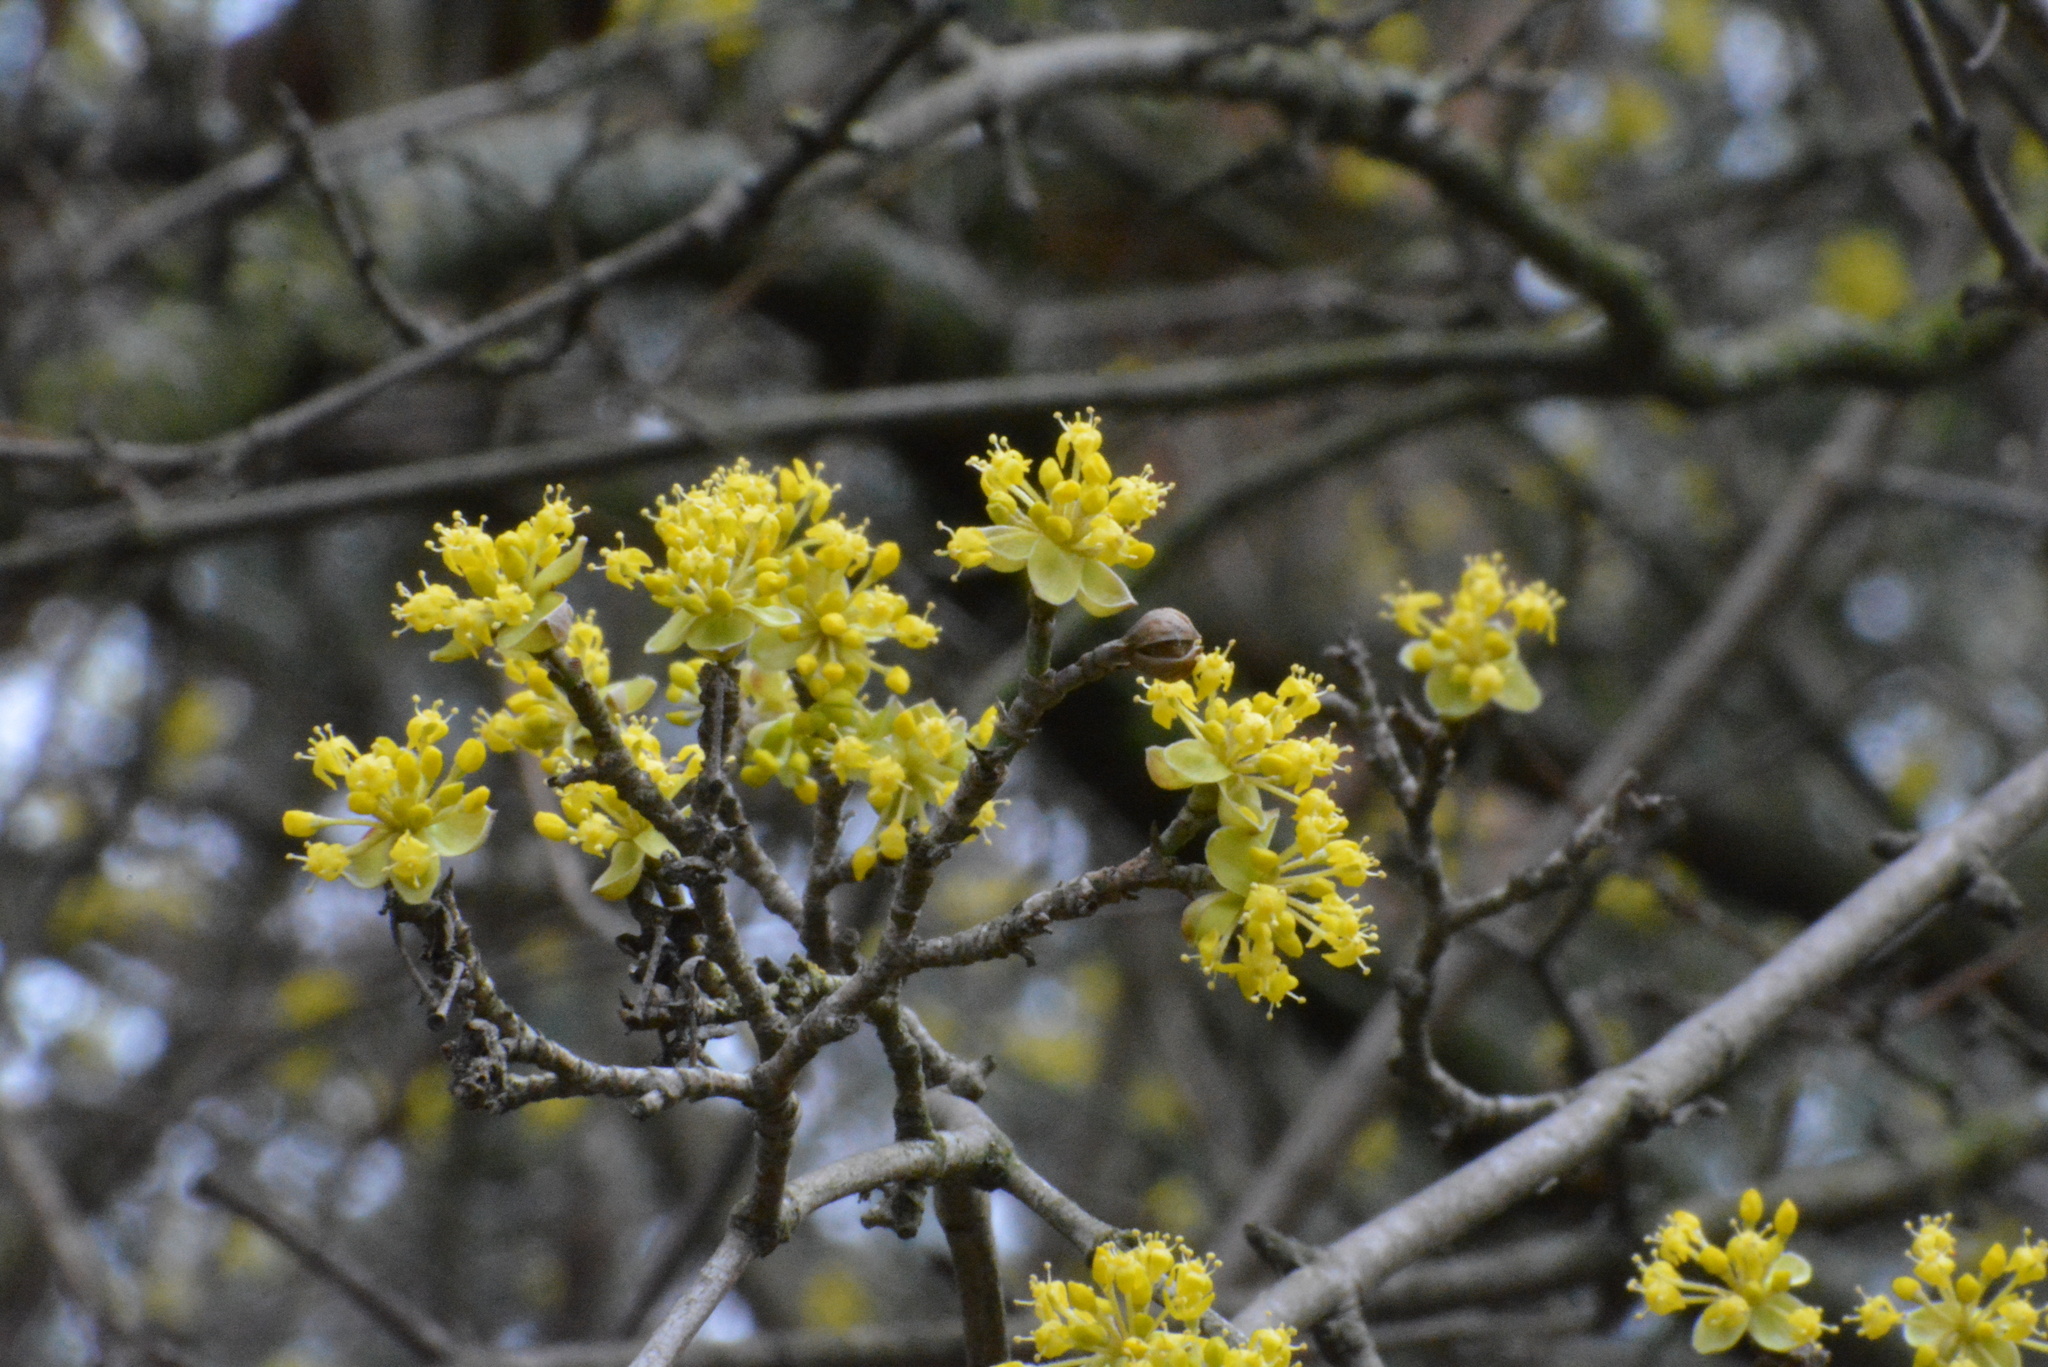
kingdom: Plantae
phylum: Tracheophyta
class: Magnoliopsida
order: Cornales
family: Cornaceae
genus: Cornus
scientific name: Cornus mas
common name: Cornelian-cherry
